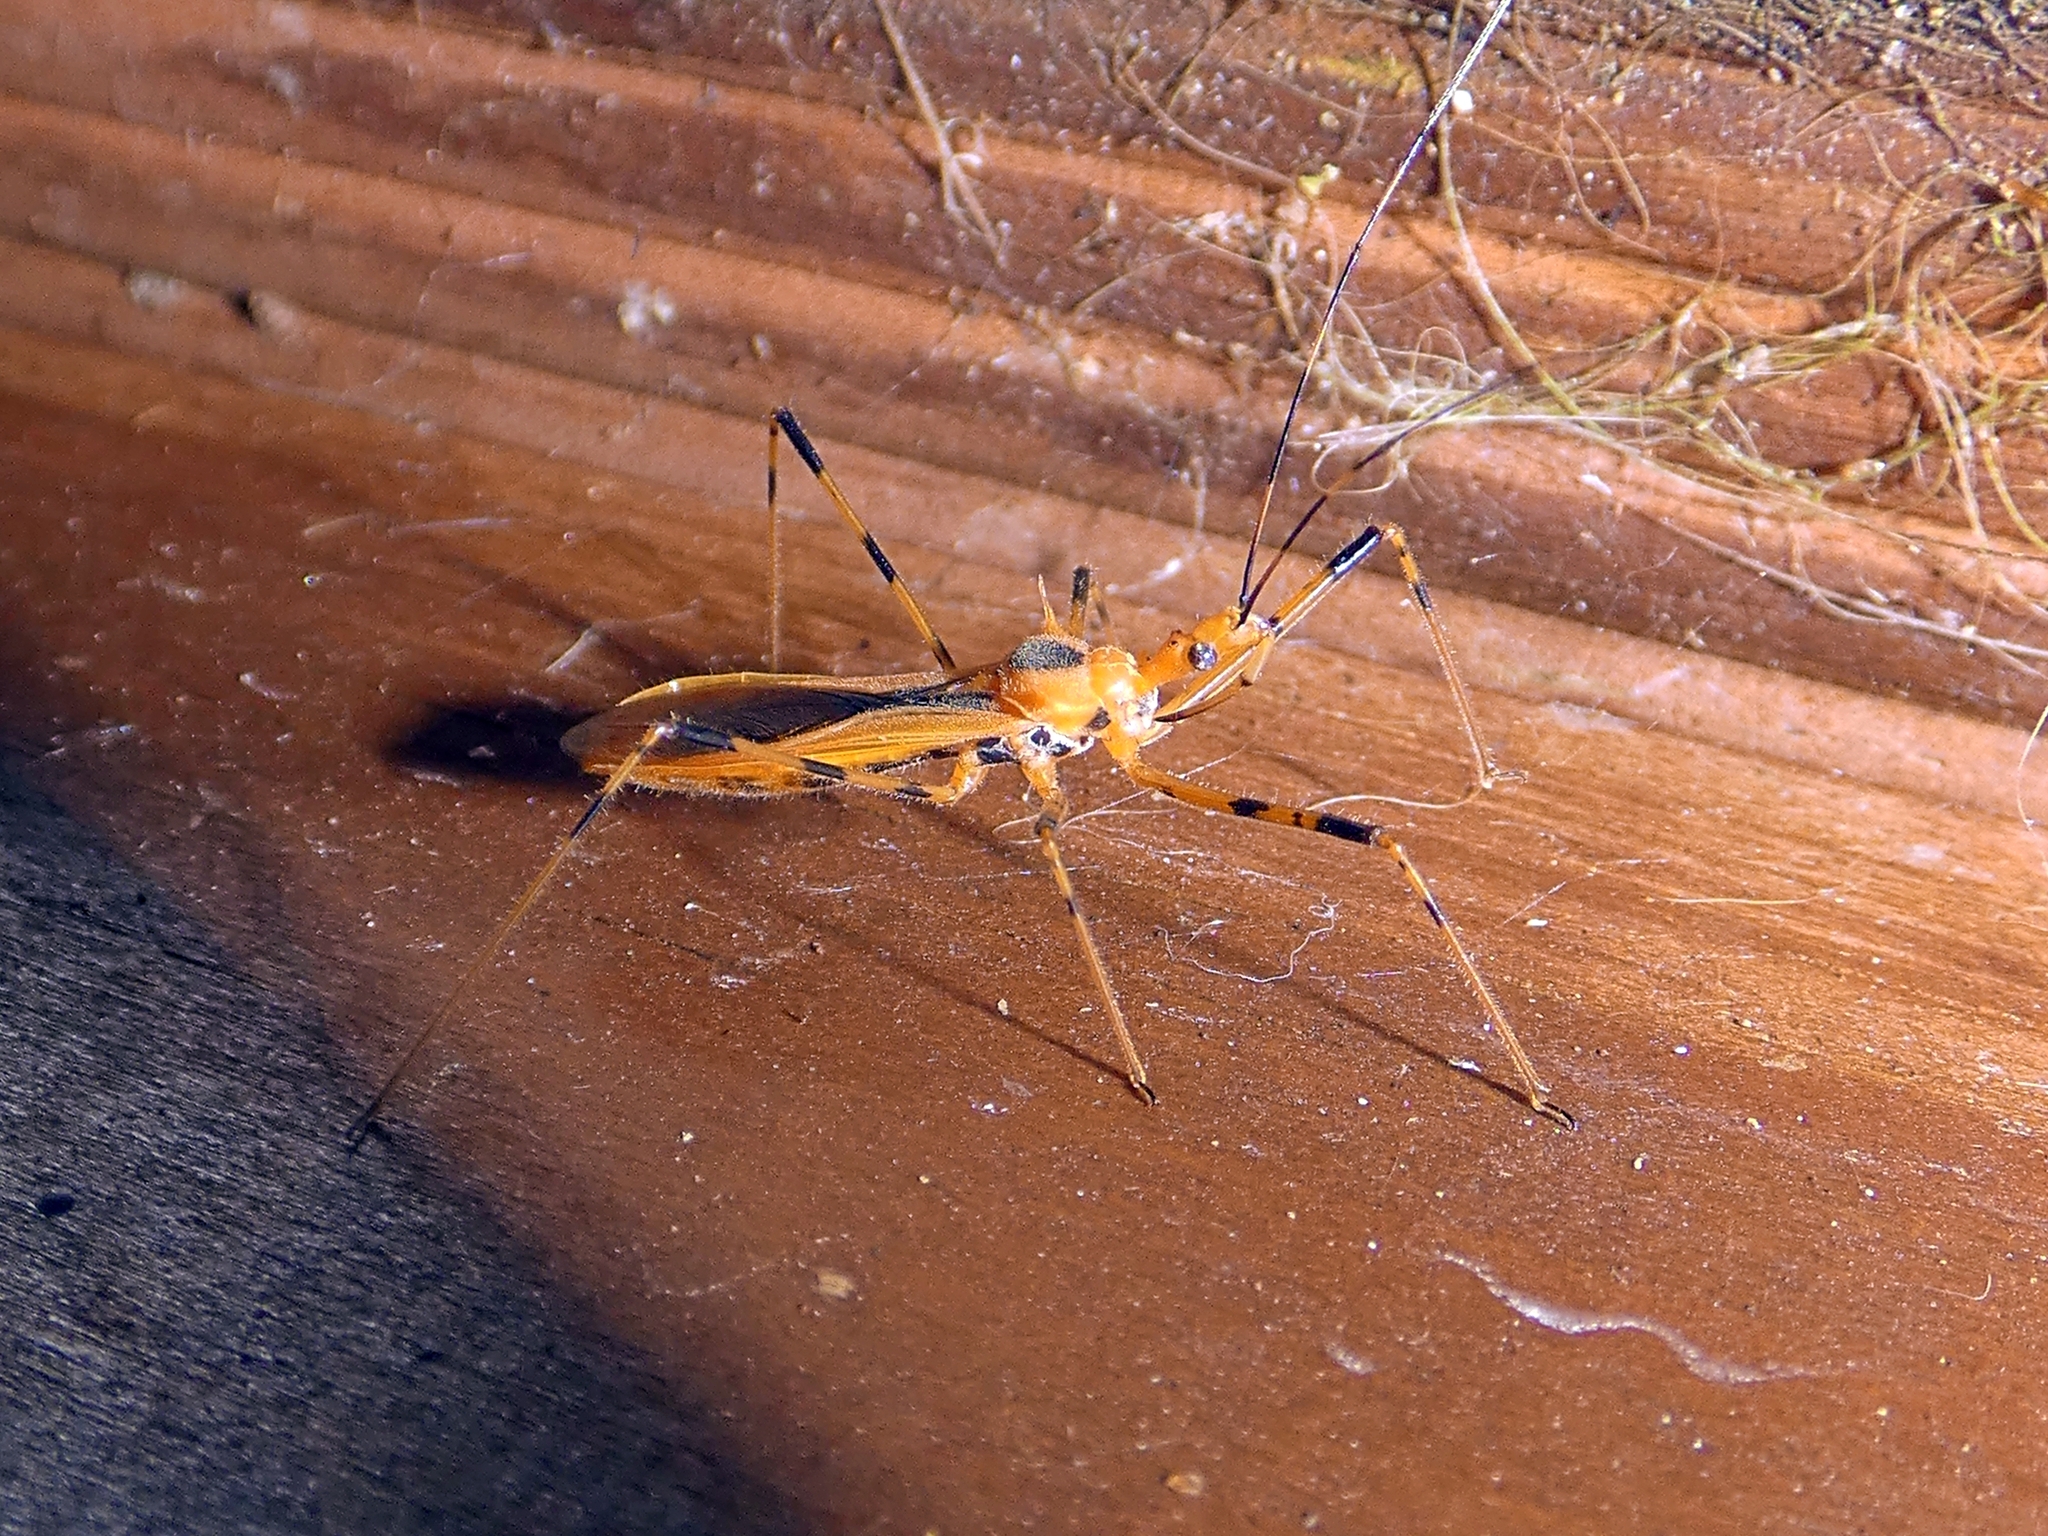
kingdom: Animalia
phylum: Arthropoda
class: Insecta
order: Hemiptera
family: Reduviidae
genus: Euagoras
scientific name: Euagoras dorycus
